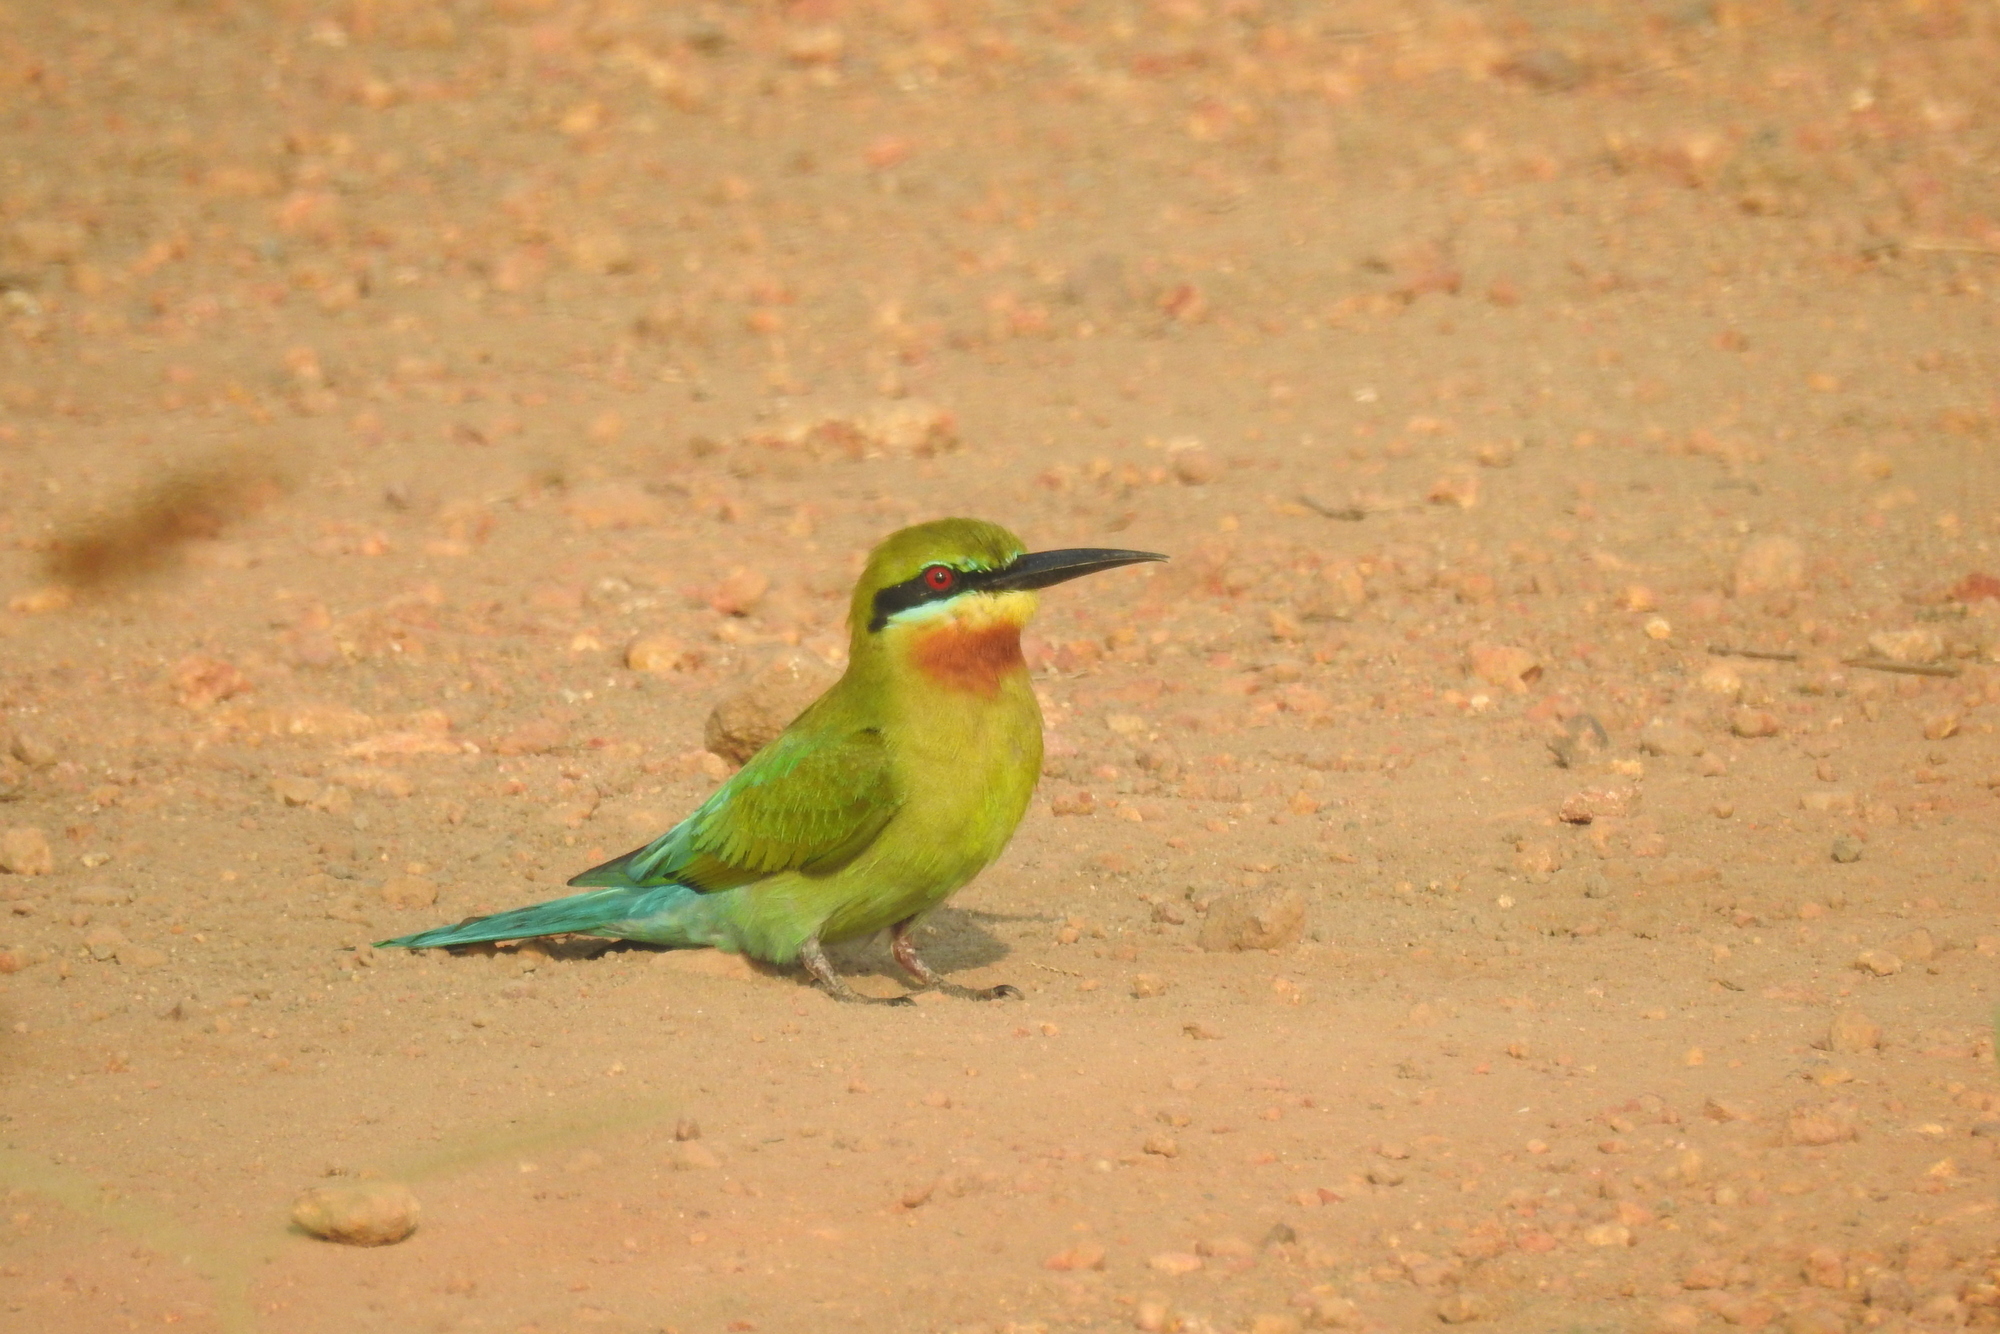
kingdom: Animalia
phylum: Chordata
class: Aves
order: Coraciiformes
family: Meropidae
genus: Merops
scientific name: Merops philippinus
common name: Blue-tailed bee-eater
